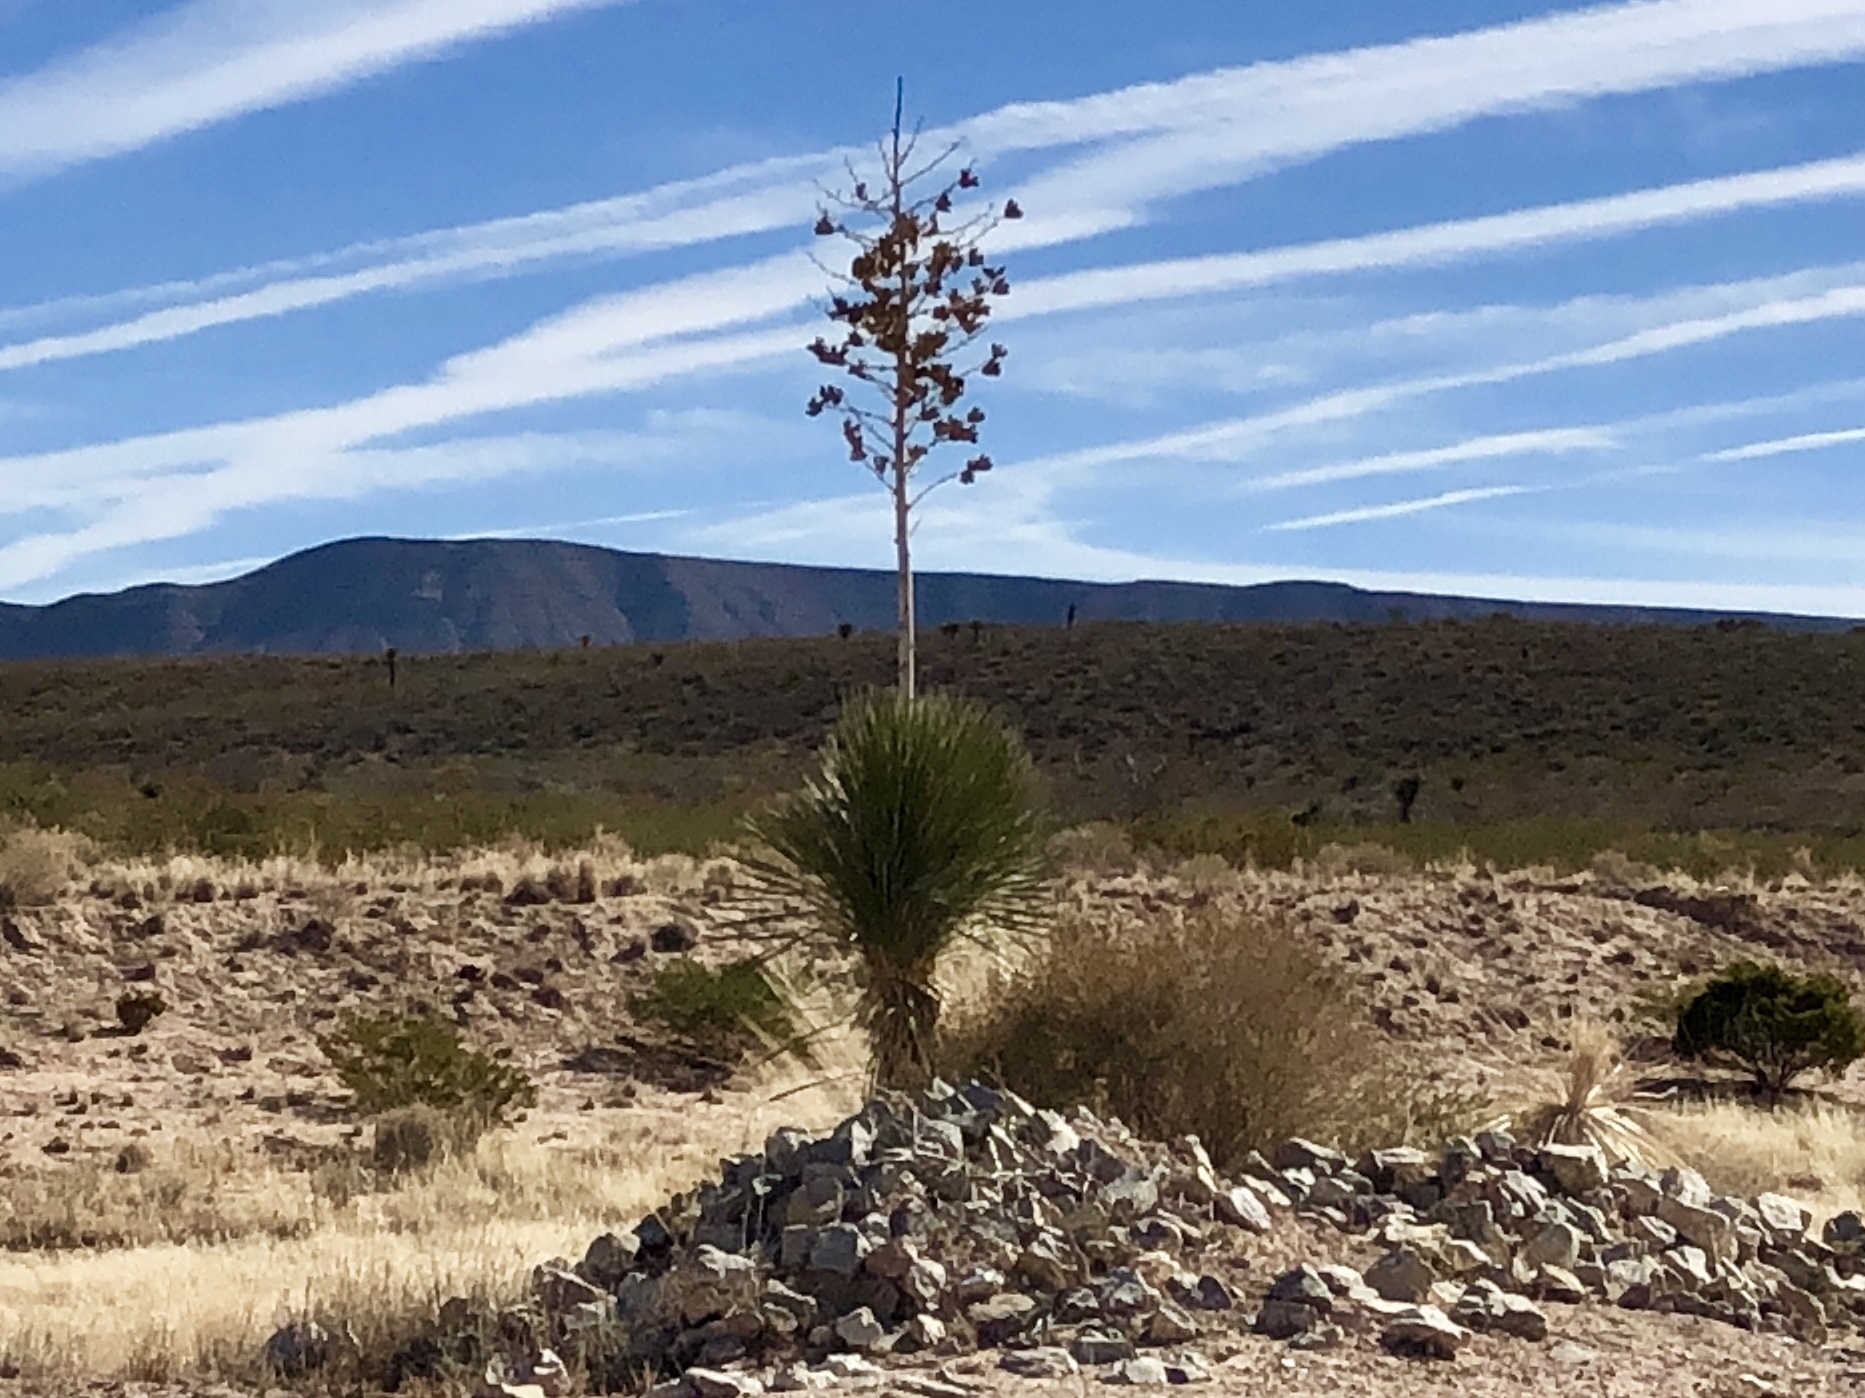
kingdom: Plantae
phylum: Tracheophyta
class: Liliopsida
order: Asparagales
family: Asparagaceae
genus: Yucca
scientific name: Yucca elata
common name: Palmella
